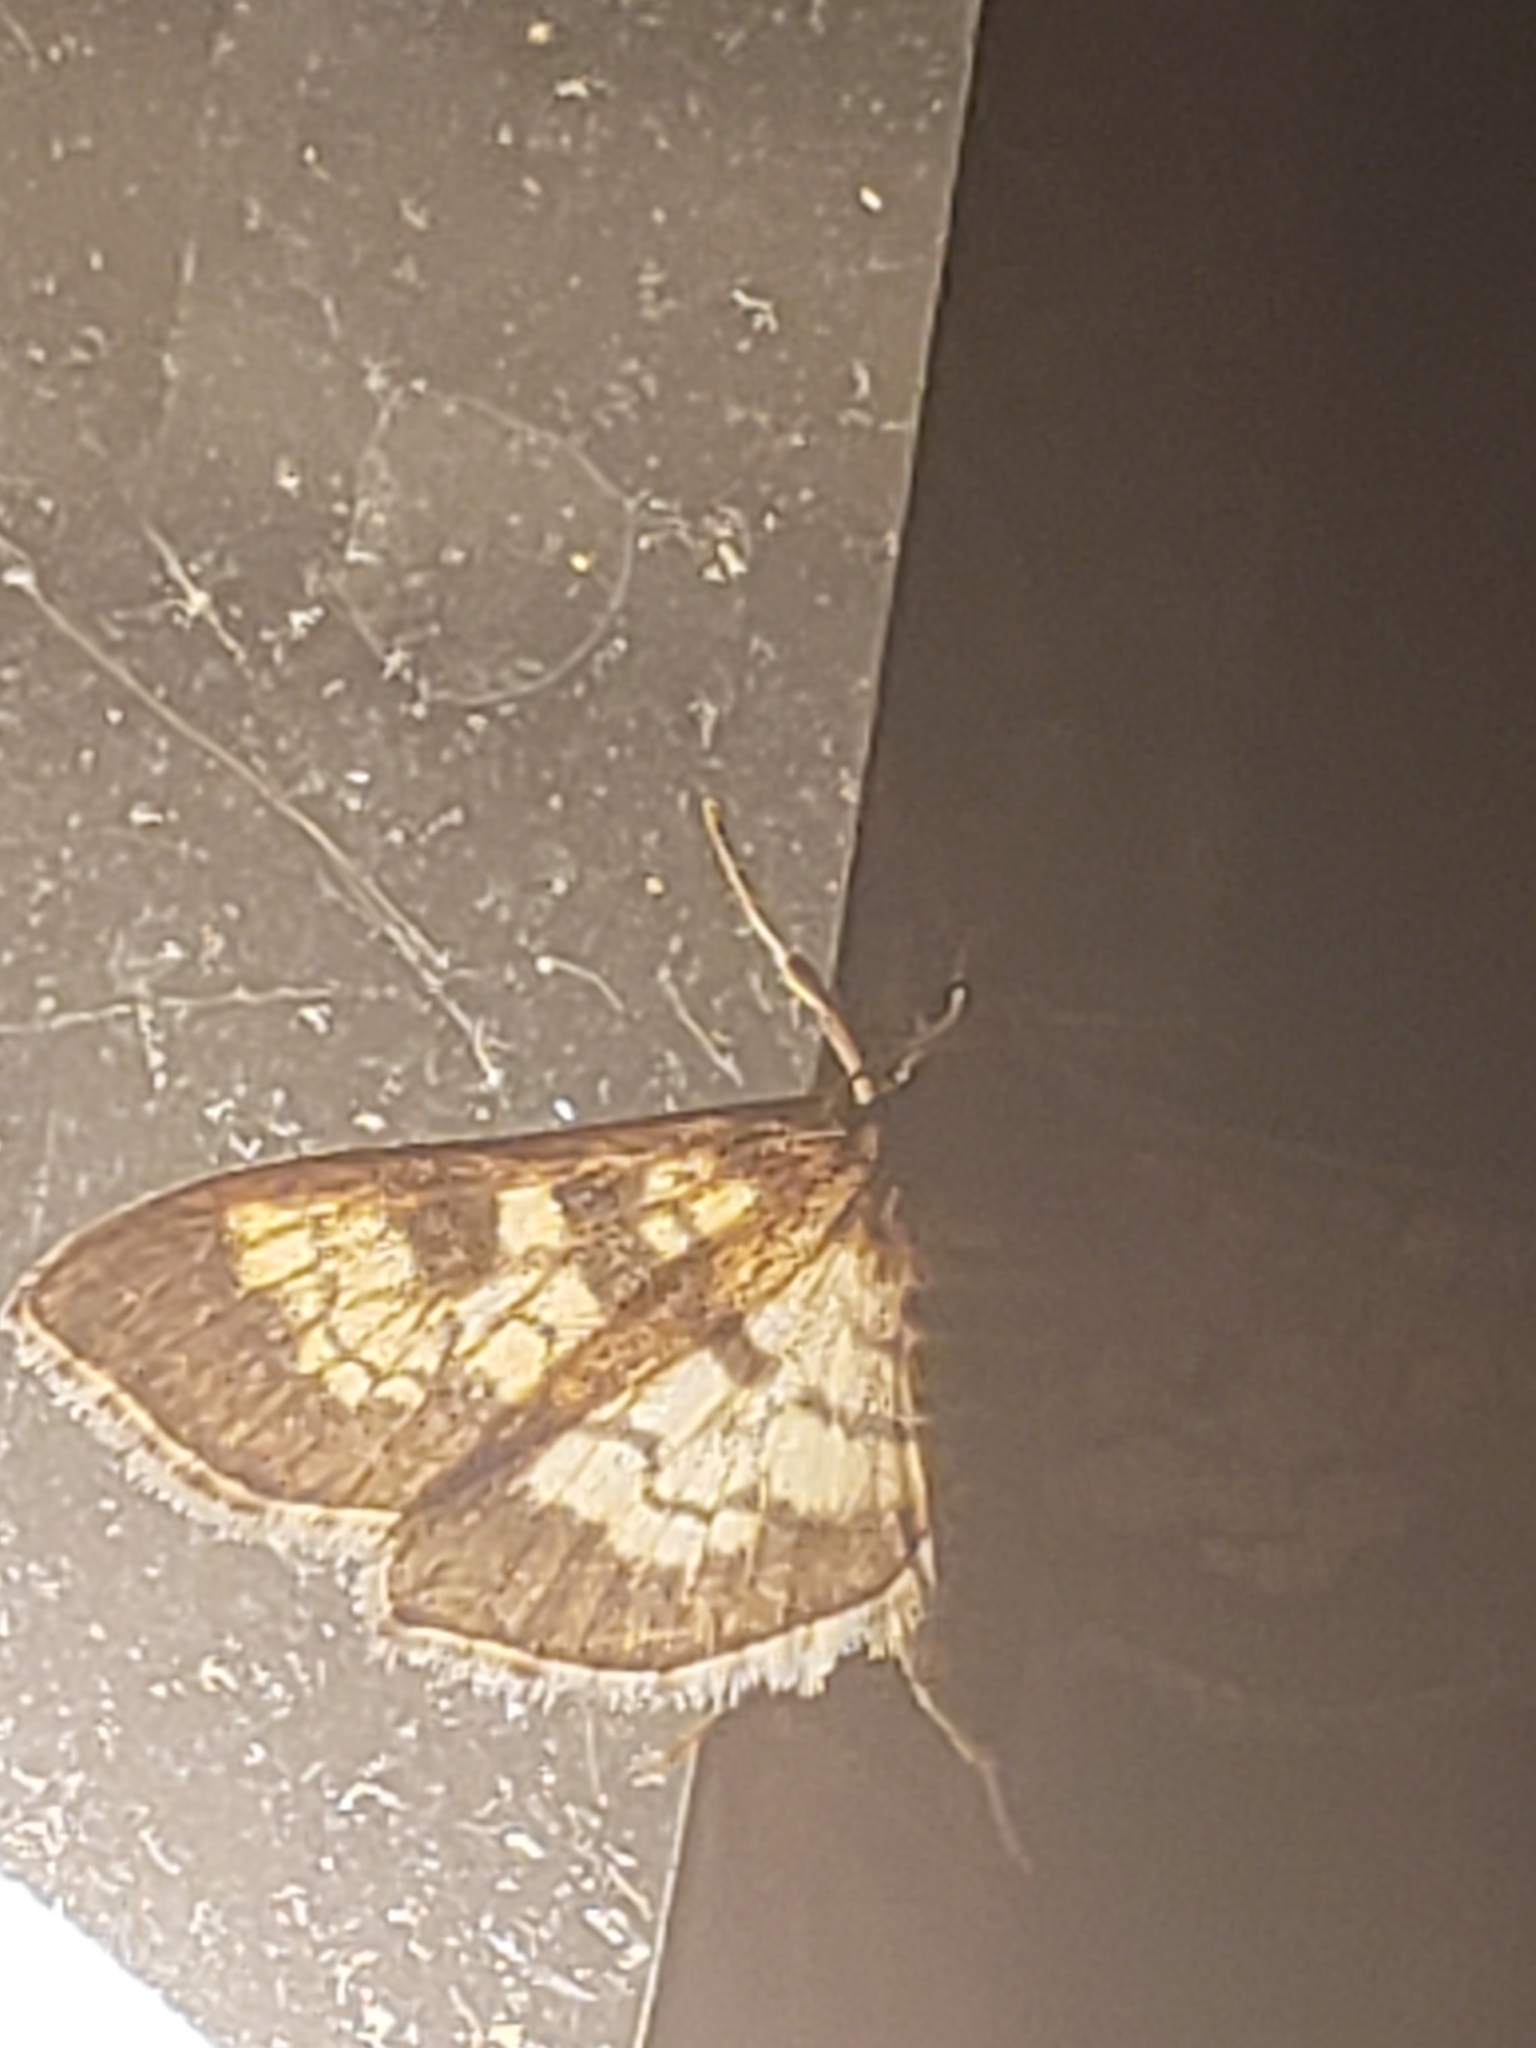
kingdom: Animalia
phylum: Arthropoda
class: Insecta
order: Lepidoptera
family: Crambidae
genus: Epipagis
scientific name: Epipagis adipaloides
